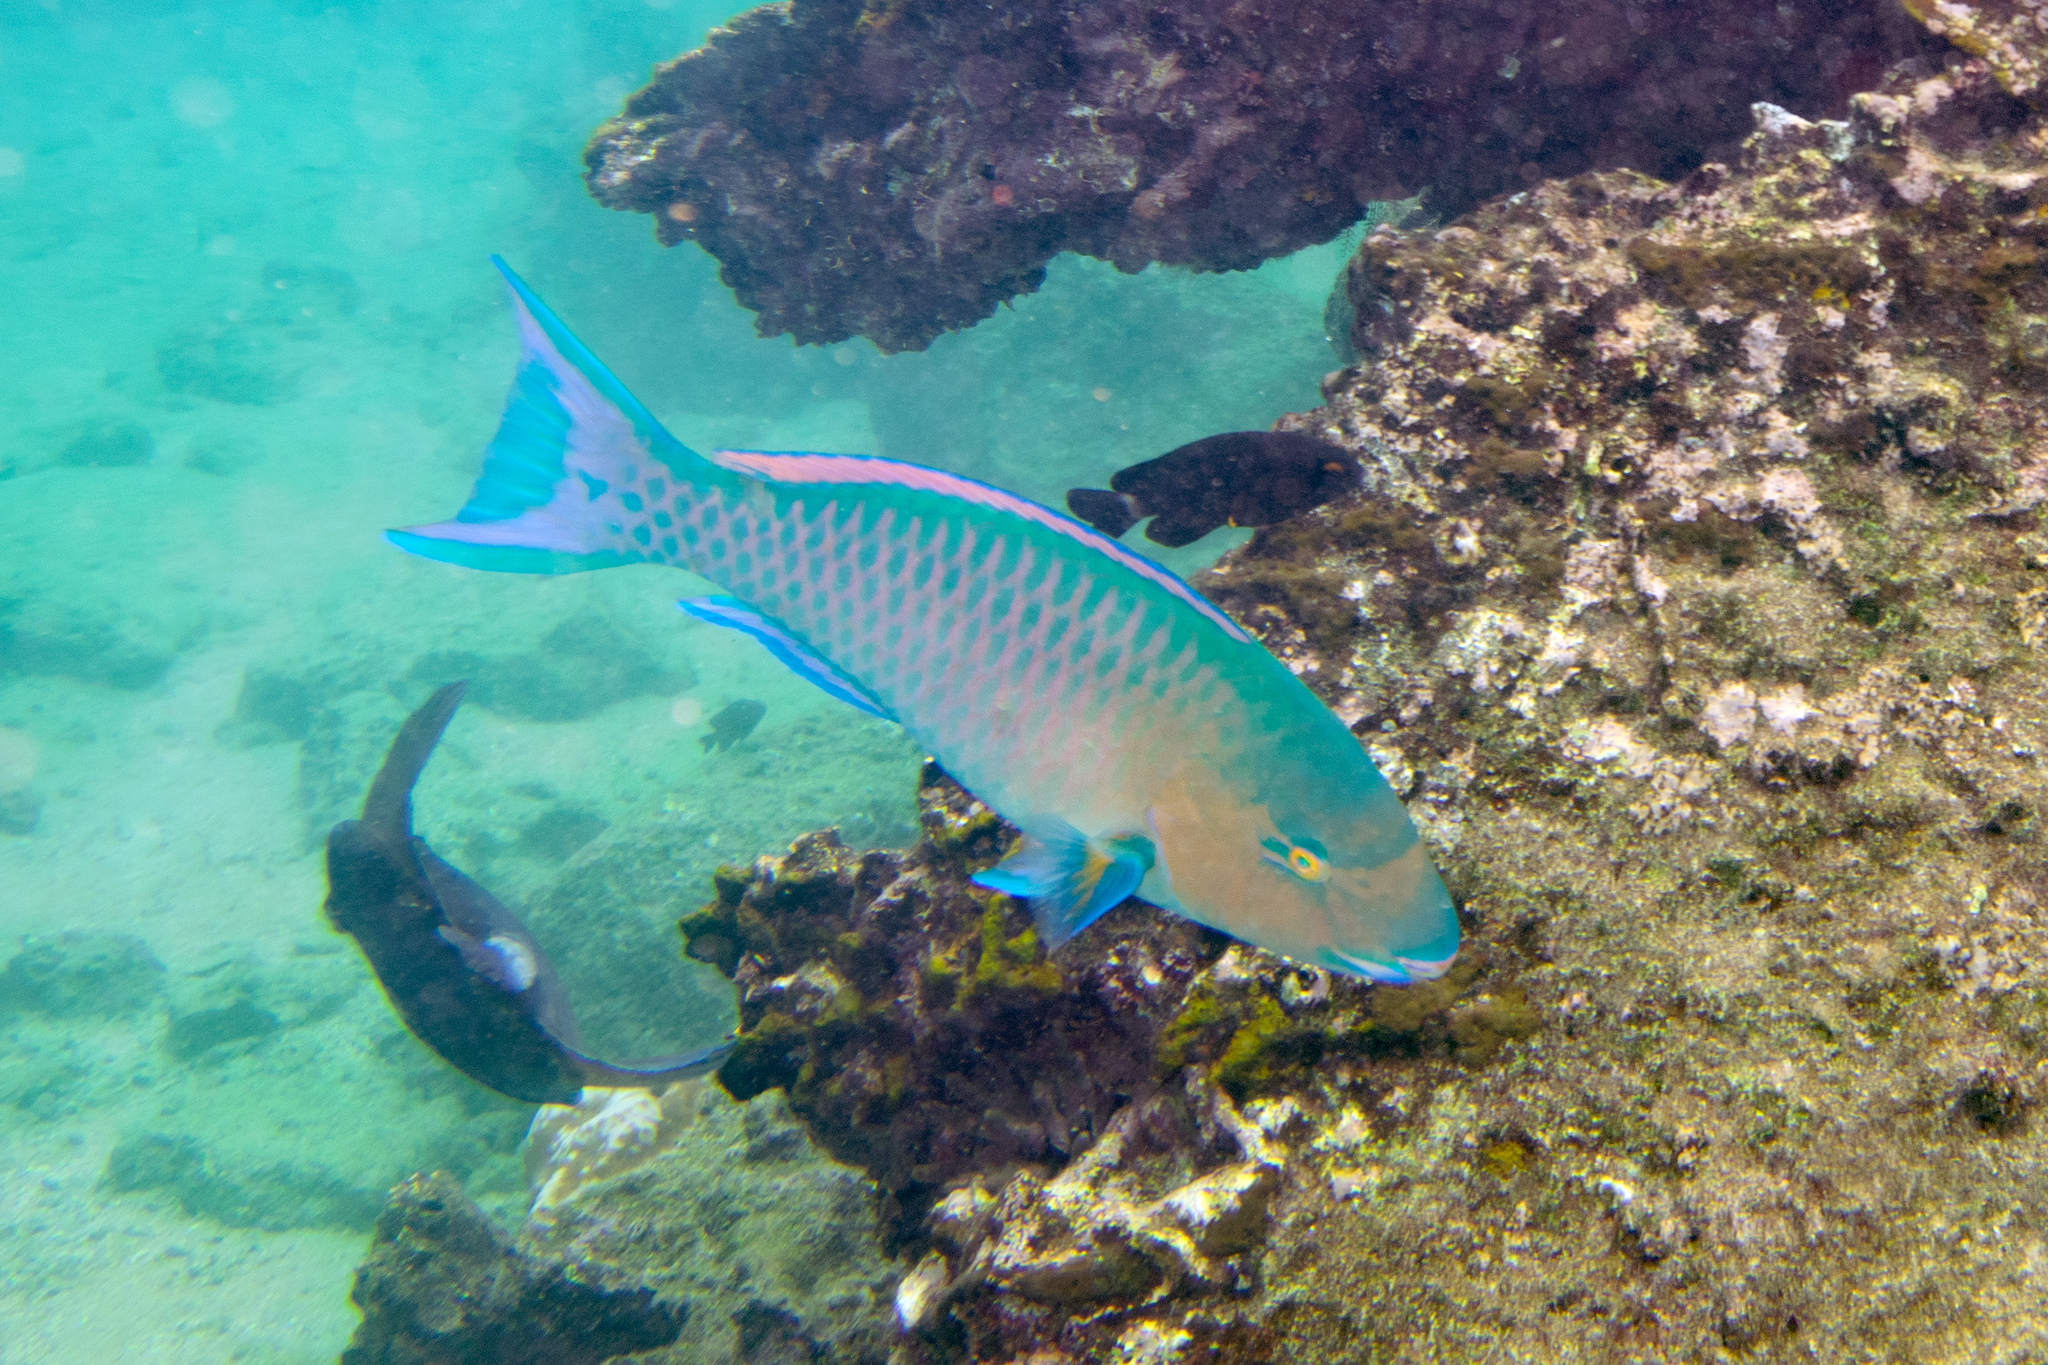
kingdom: Animalia
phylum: Chordata
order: Perciformes
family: Scaridae
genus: Scarus
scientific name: Scarus ghobban
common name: Blue-barred parrotfish
